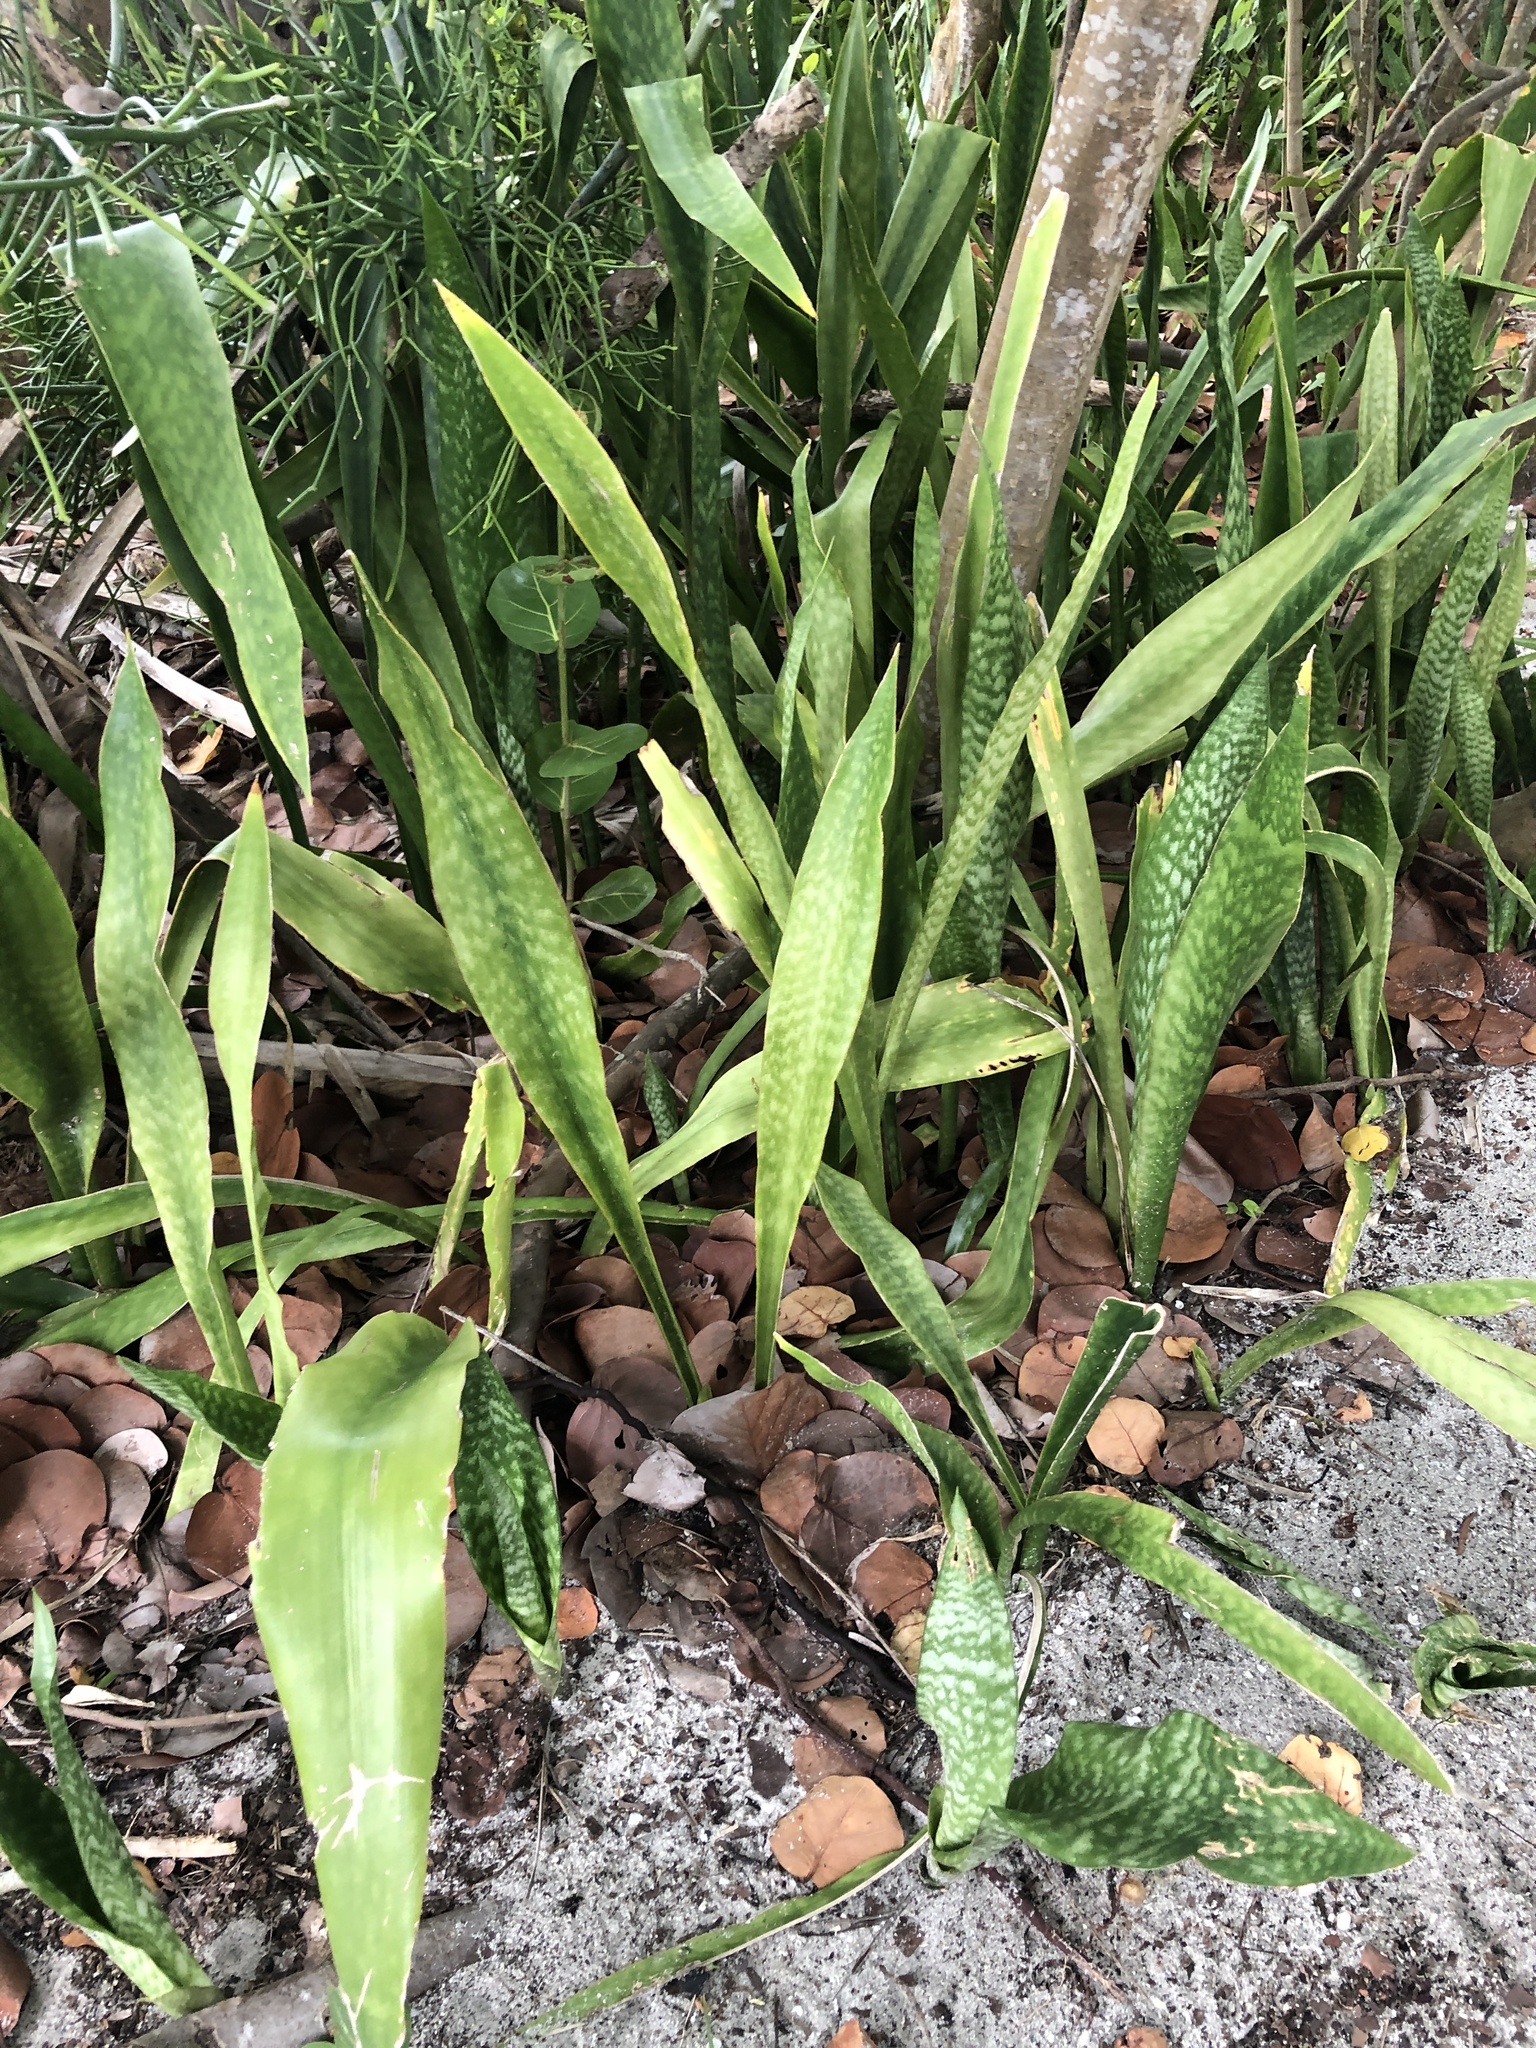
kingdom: Plantae
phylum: Tracheophyta
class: Liliopsida
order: Asparagales
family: Asparagaceae
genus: Dracaena
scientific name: Dracaena hyacinthoides
